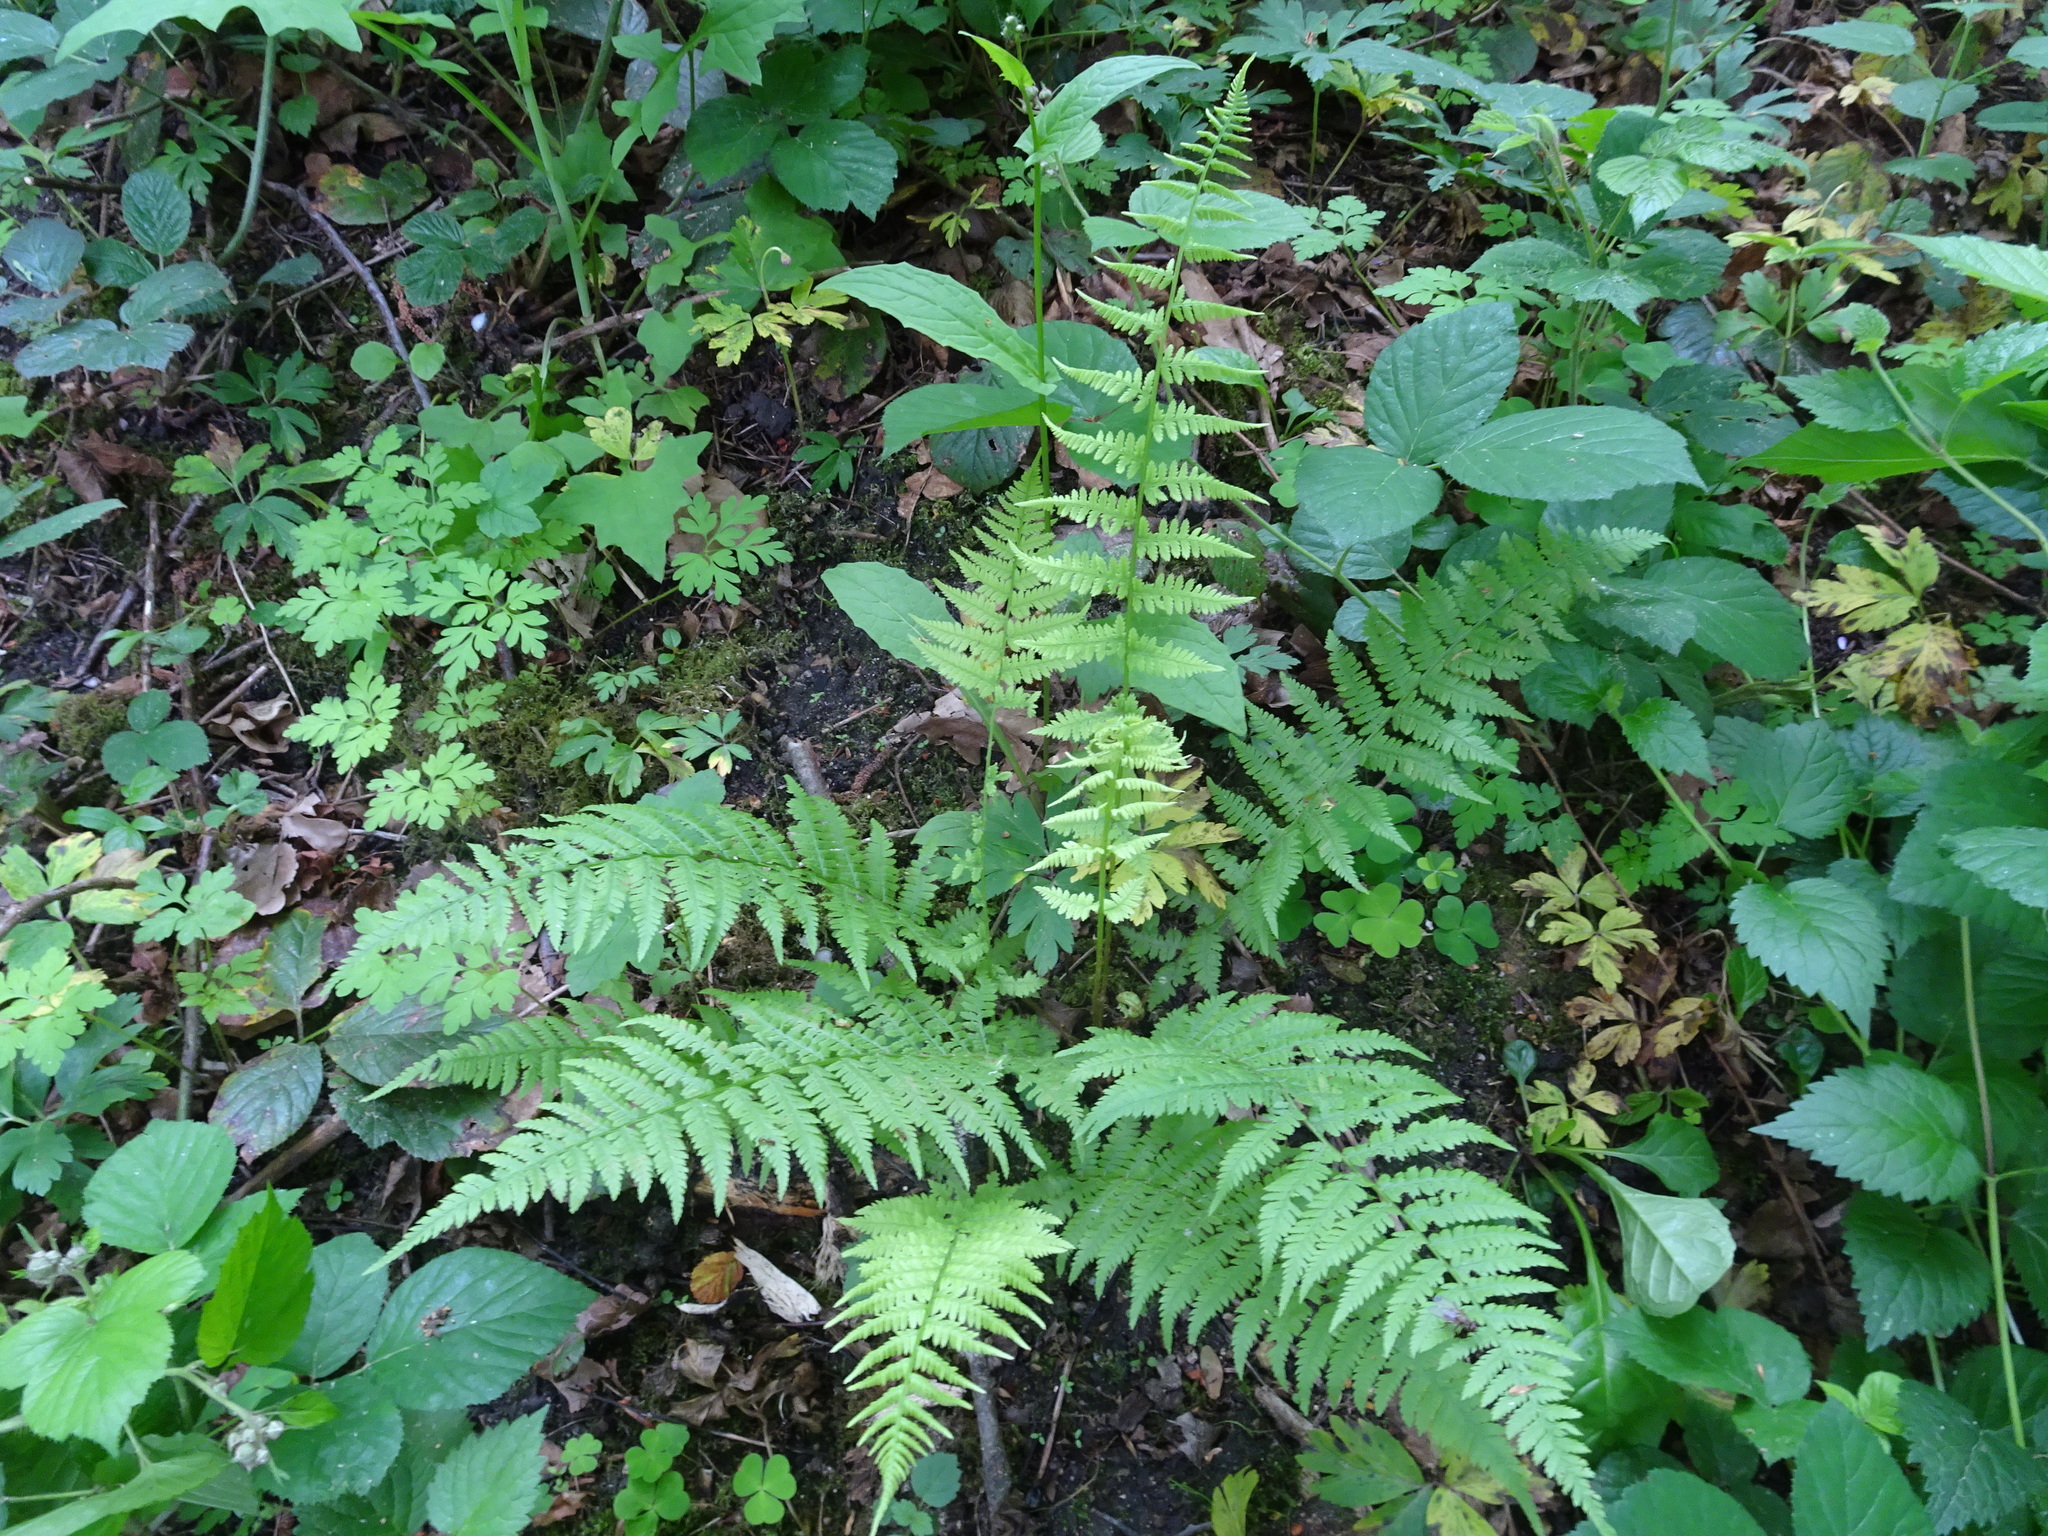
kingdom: Plantae
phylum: Tracheophyta
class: Polypodiopsida
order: Polypodiales
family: Athyriaceae
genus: Athyrium
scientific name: Athyrium filix-femina
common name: Lady fern
